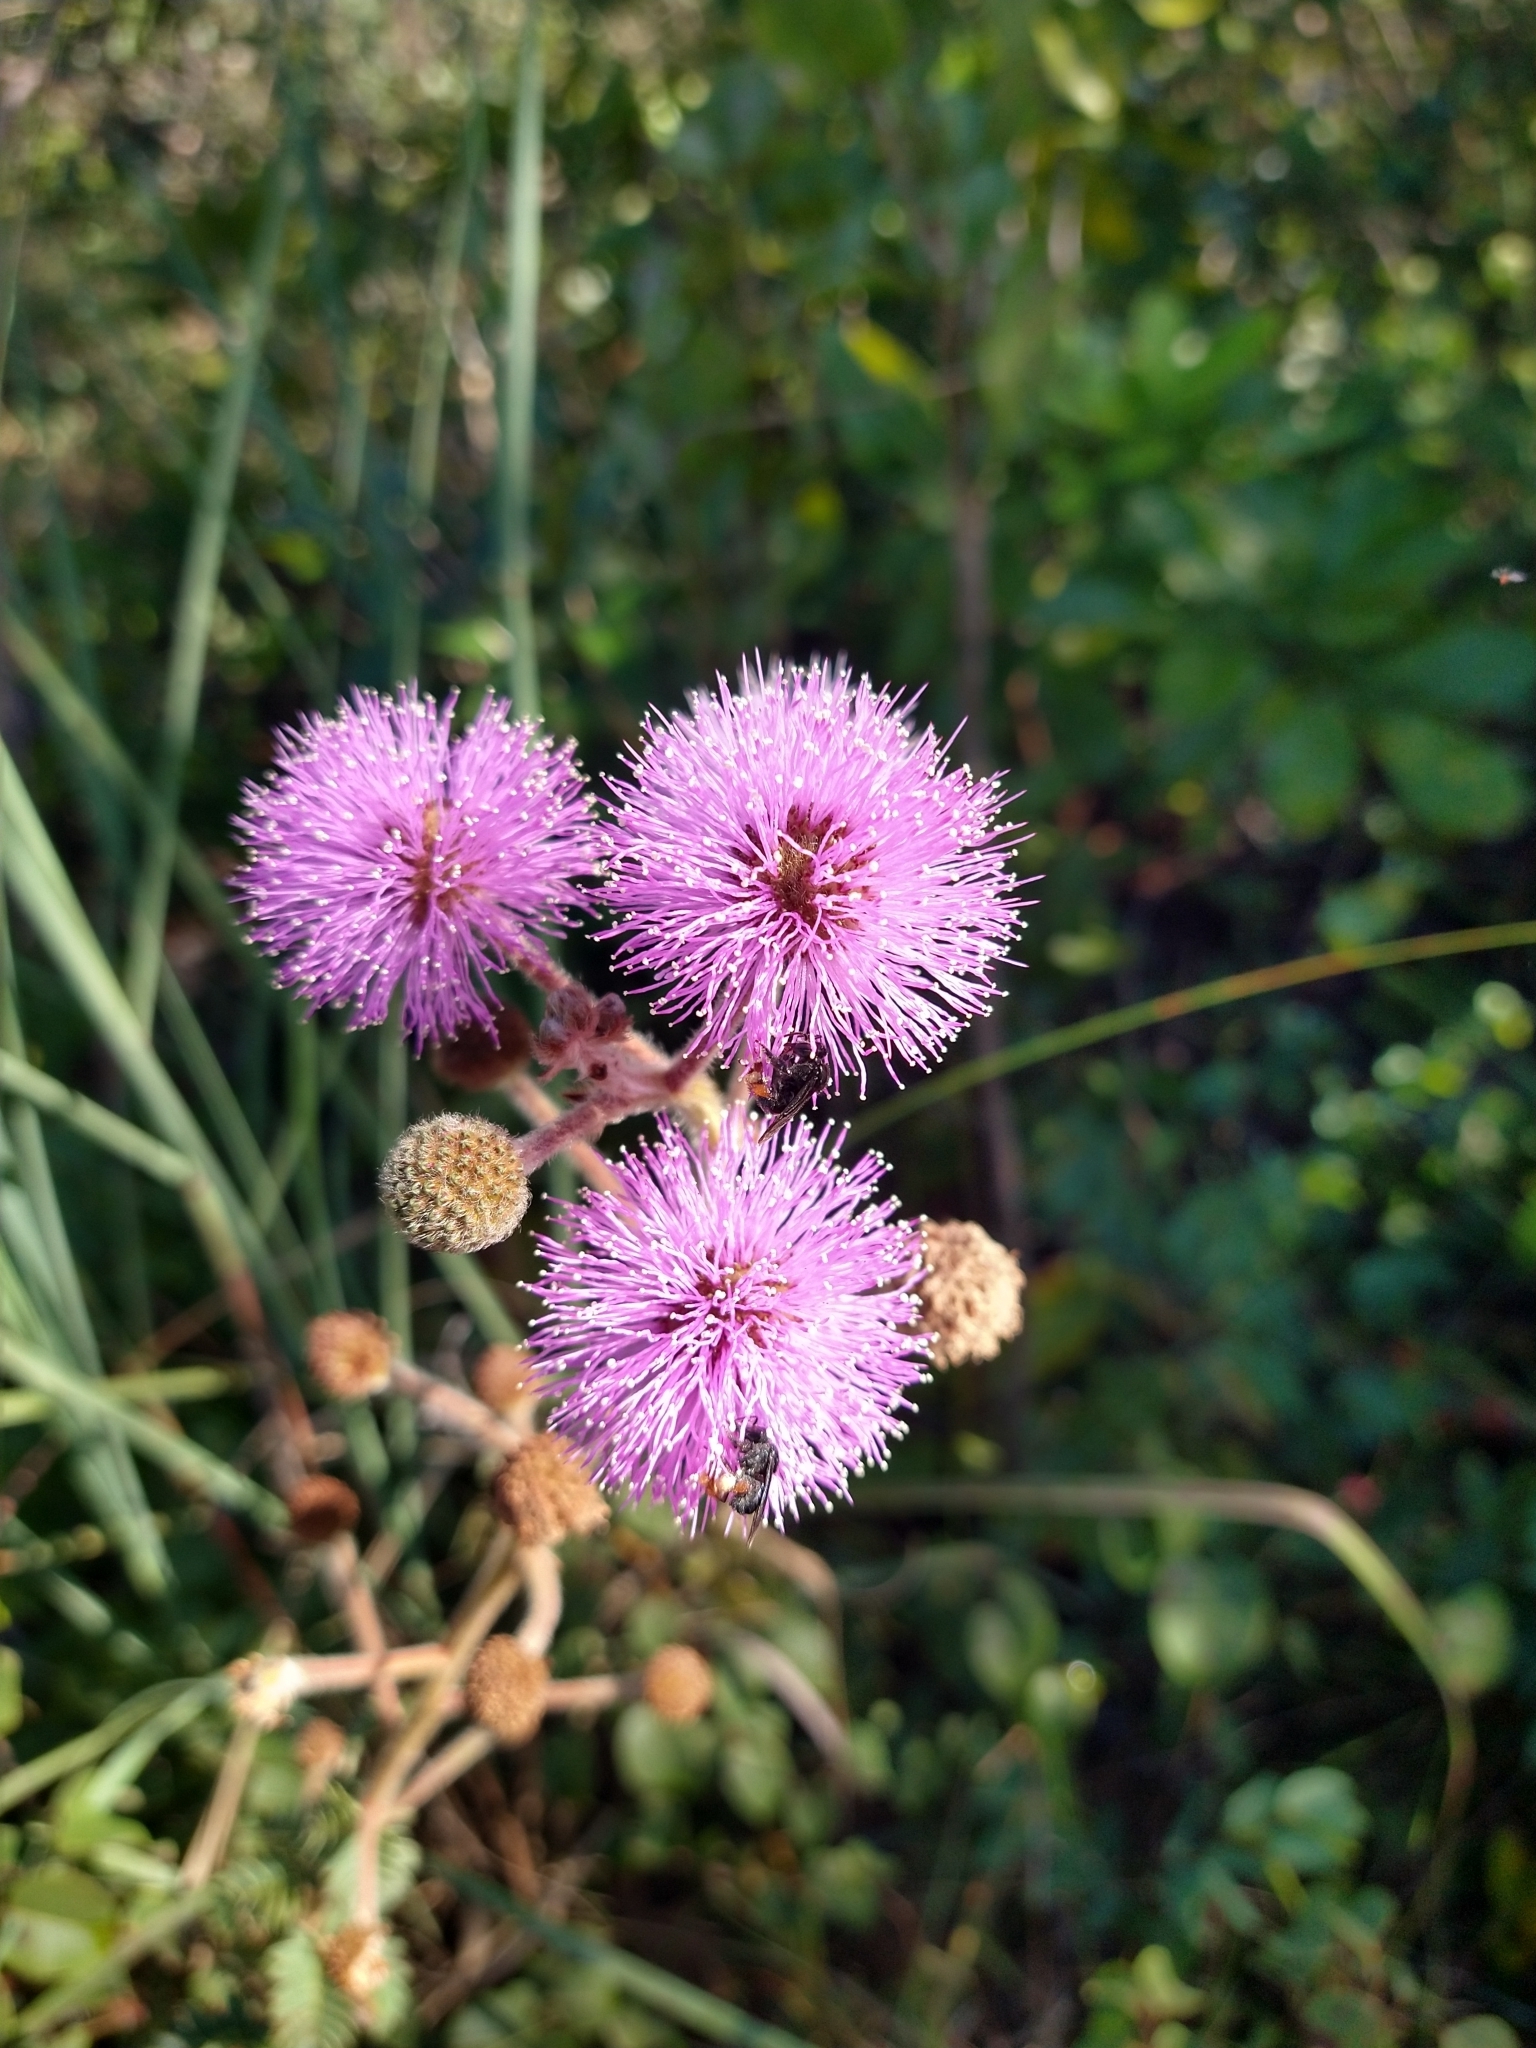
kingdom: Animalia
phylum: Arthropoda
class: Insecta
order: Hymenoptera
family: Apidae
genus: Trigona
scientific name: Trigona spinipes
